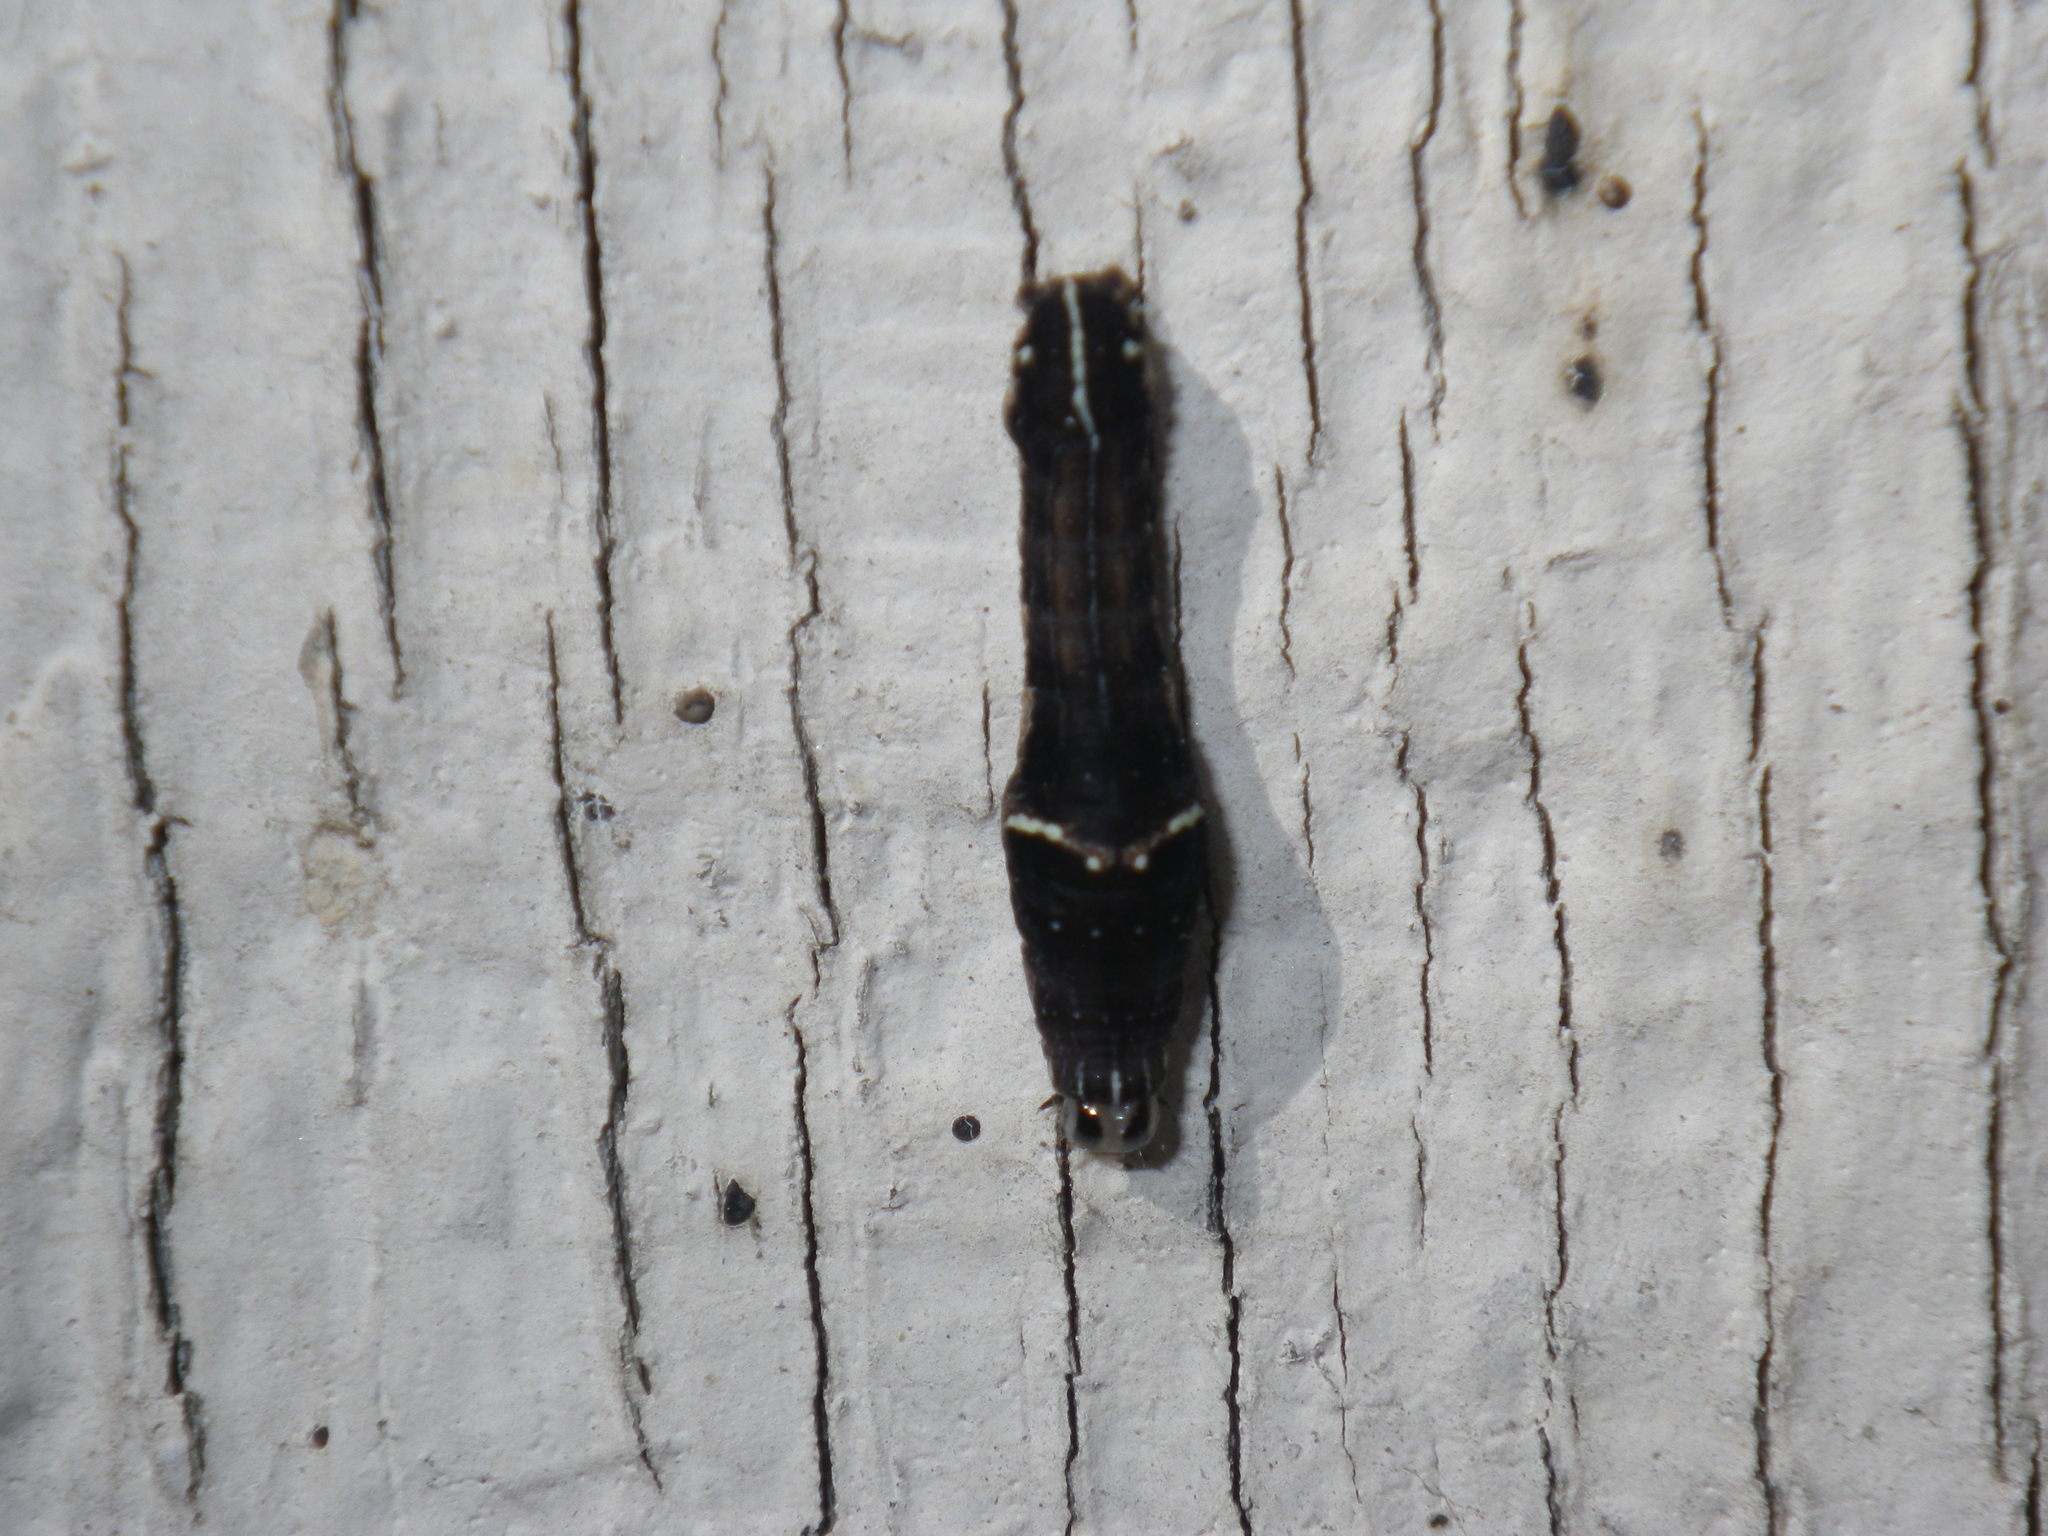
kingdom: Animalia
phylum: Arthropoda
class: Insecta
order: Lepidoptera
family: Noctuidae
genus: Galgula
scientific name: Galgula partita
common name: Wedgeling
